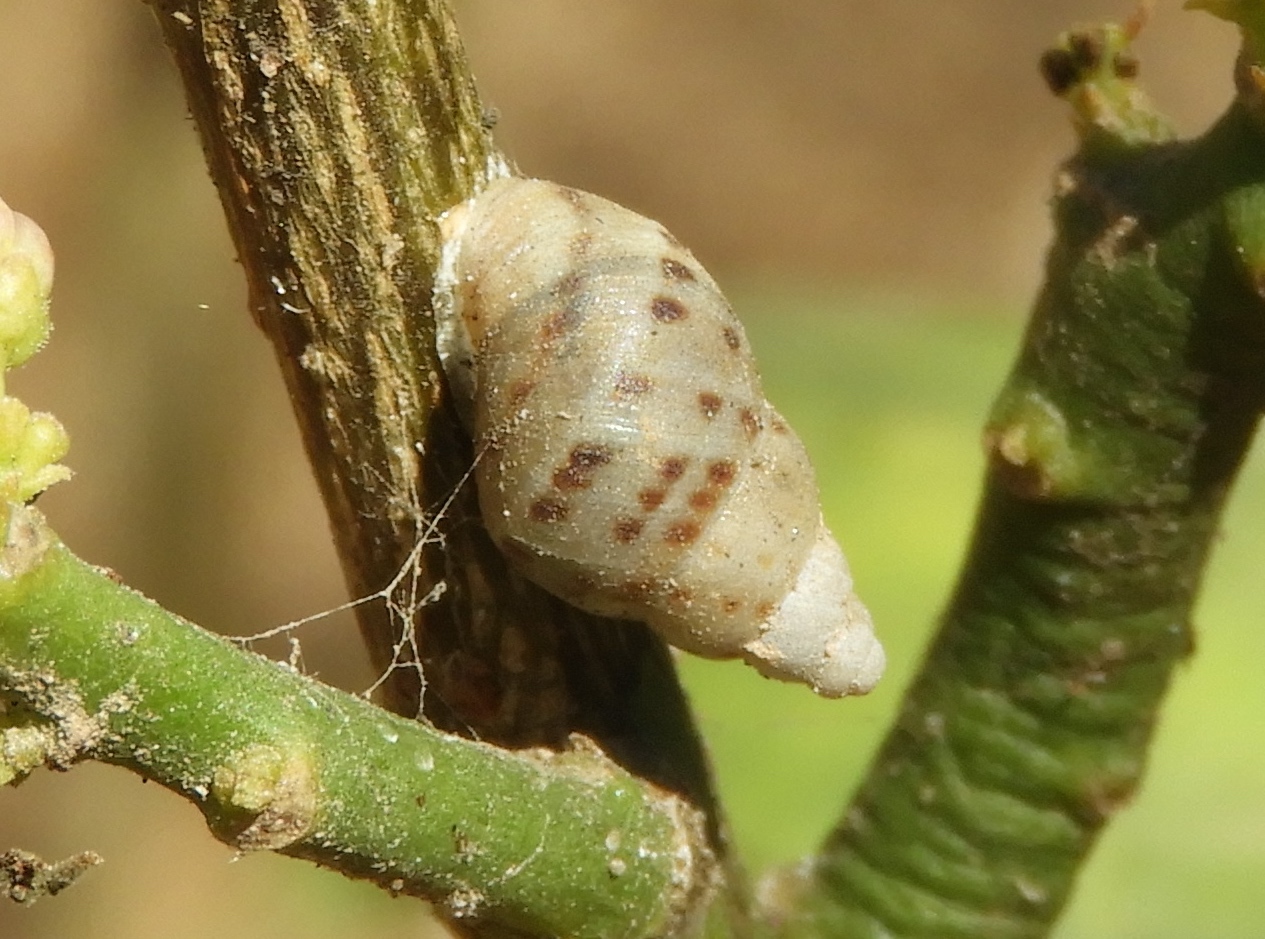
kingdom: Animalia
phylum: Mollusca
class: Gastropoda
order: Stylommatophora
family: Bulimulidae
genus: Drymaeus
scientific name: Drymaeus
